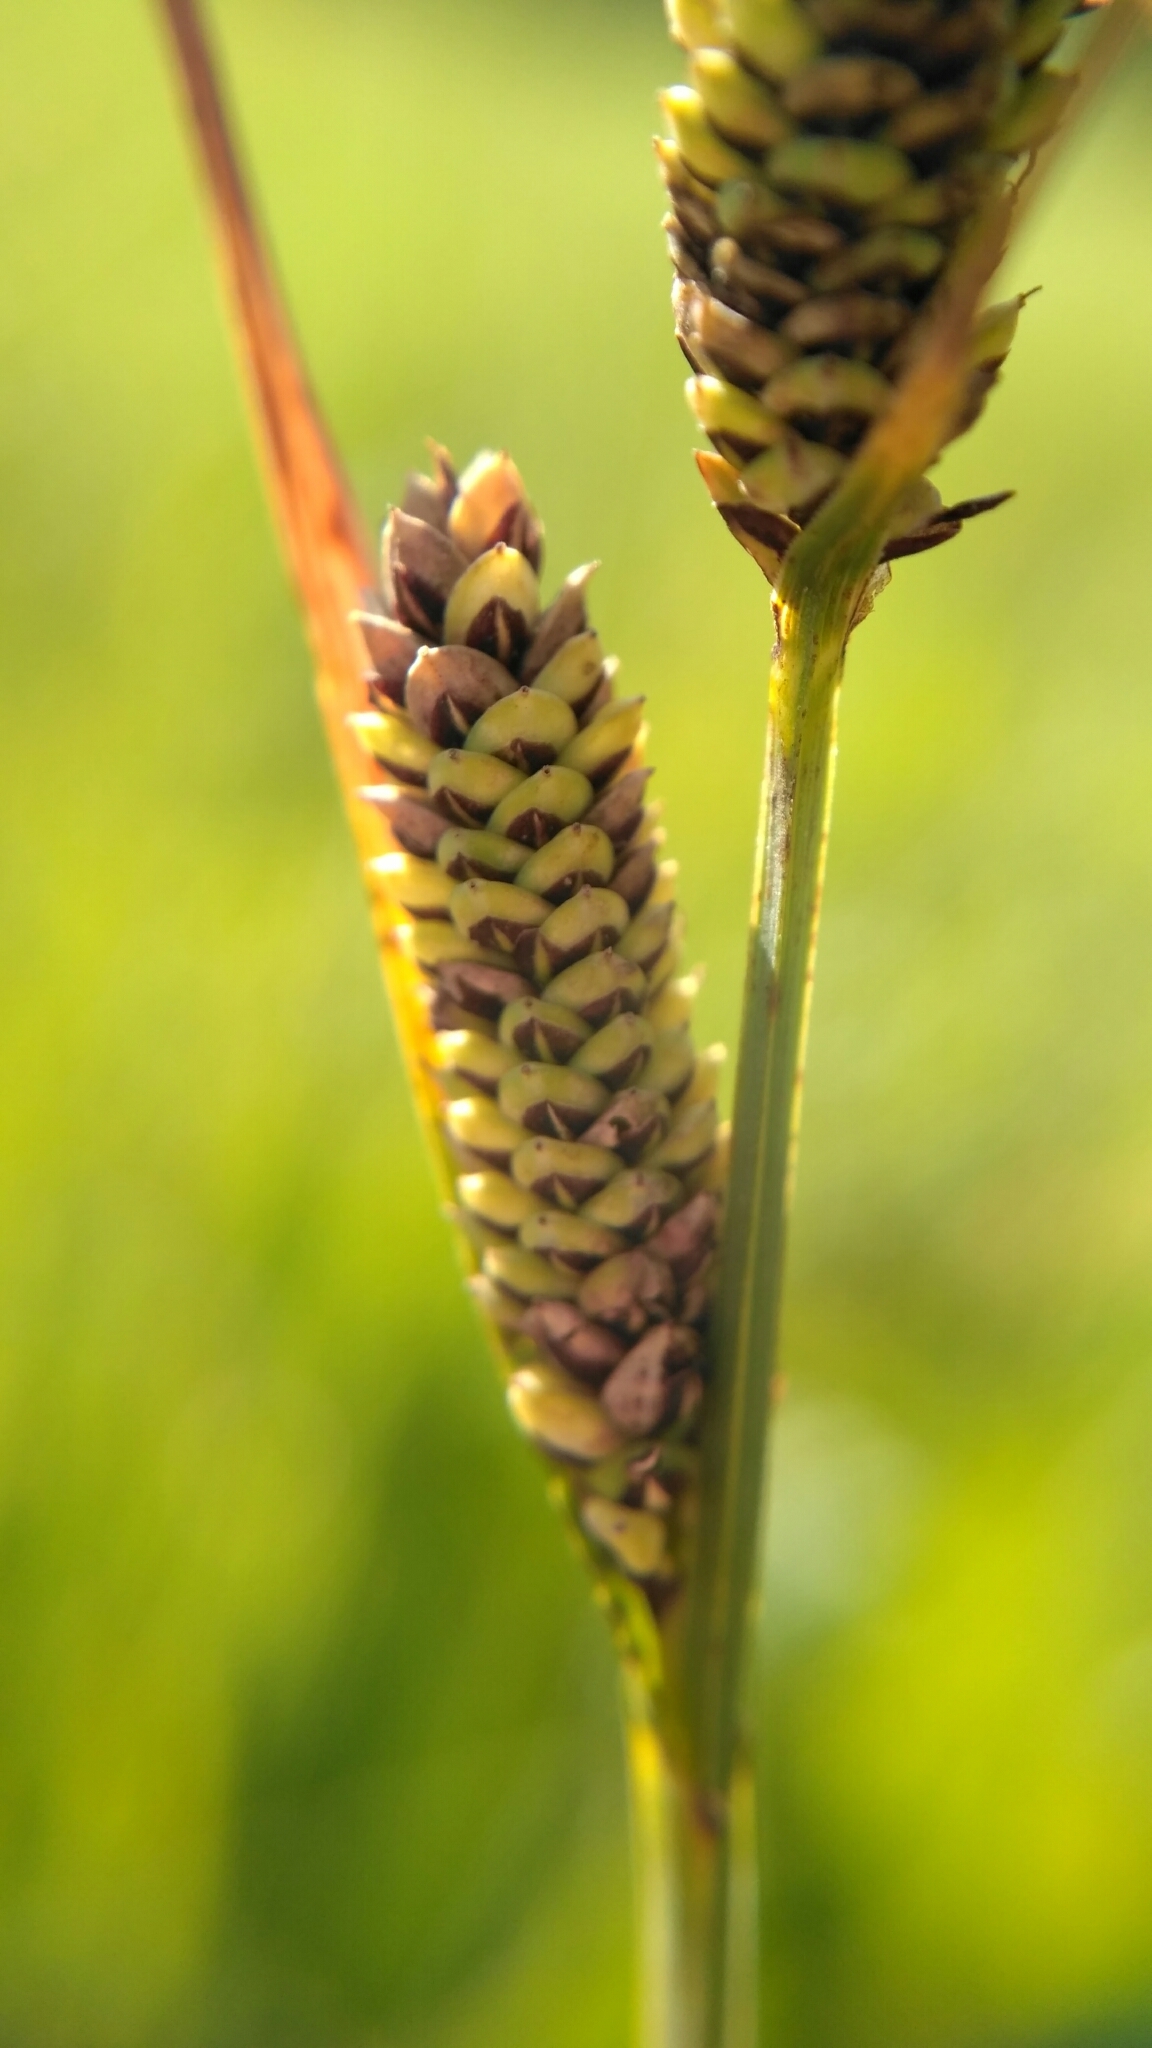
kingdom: Plantae
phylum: Tracheophyta
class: Liliopsida
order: Poales
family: Cyperaceae
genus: Carex
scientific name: Carex nigra
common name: Common sedge
